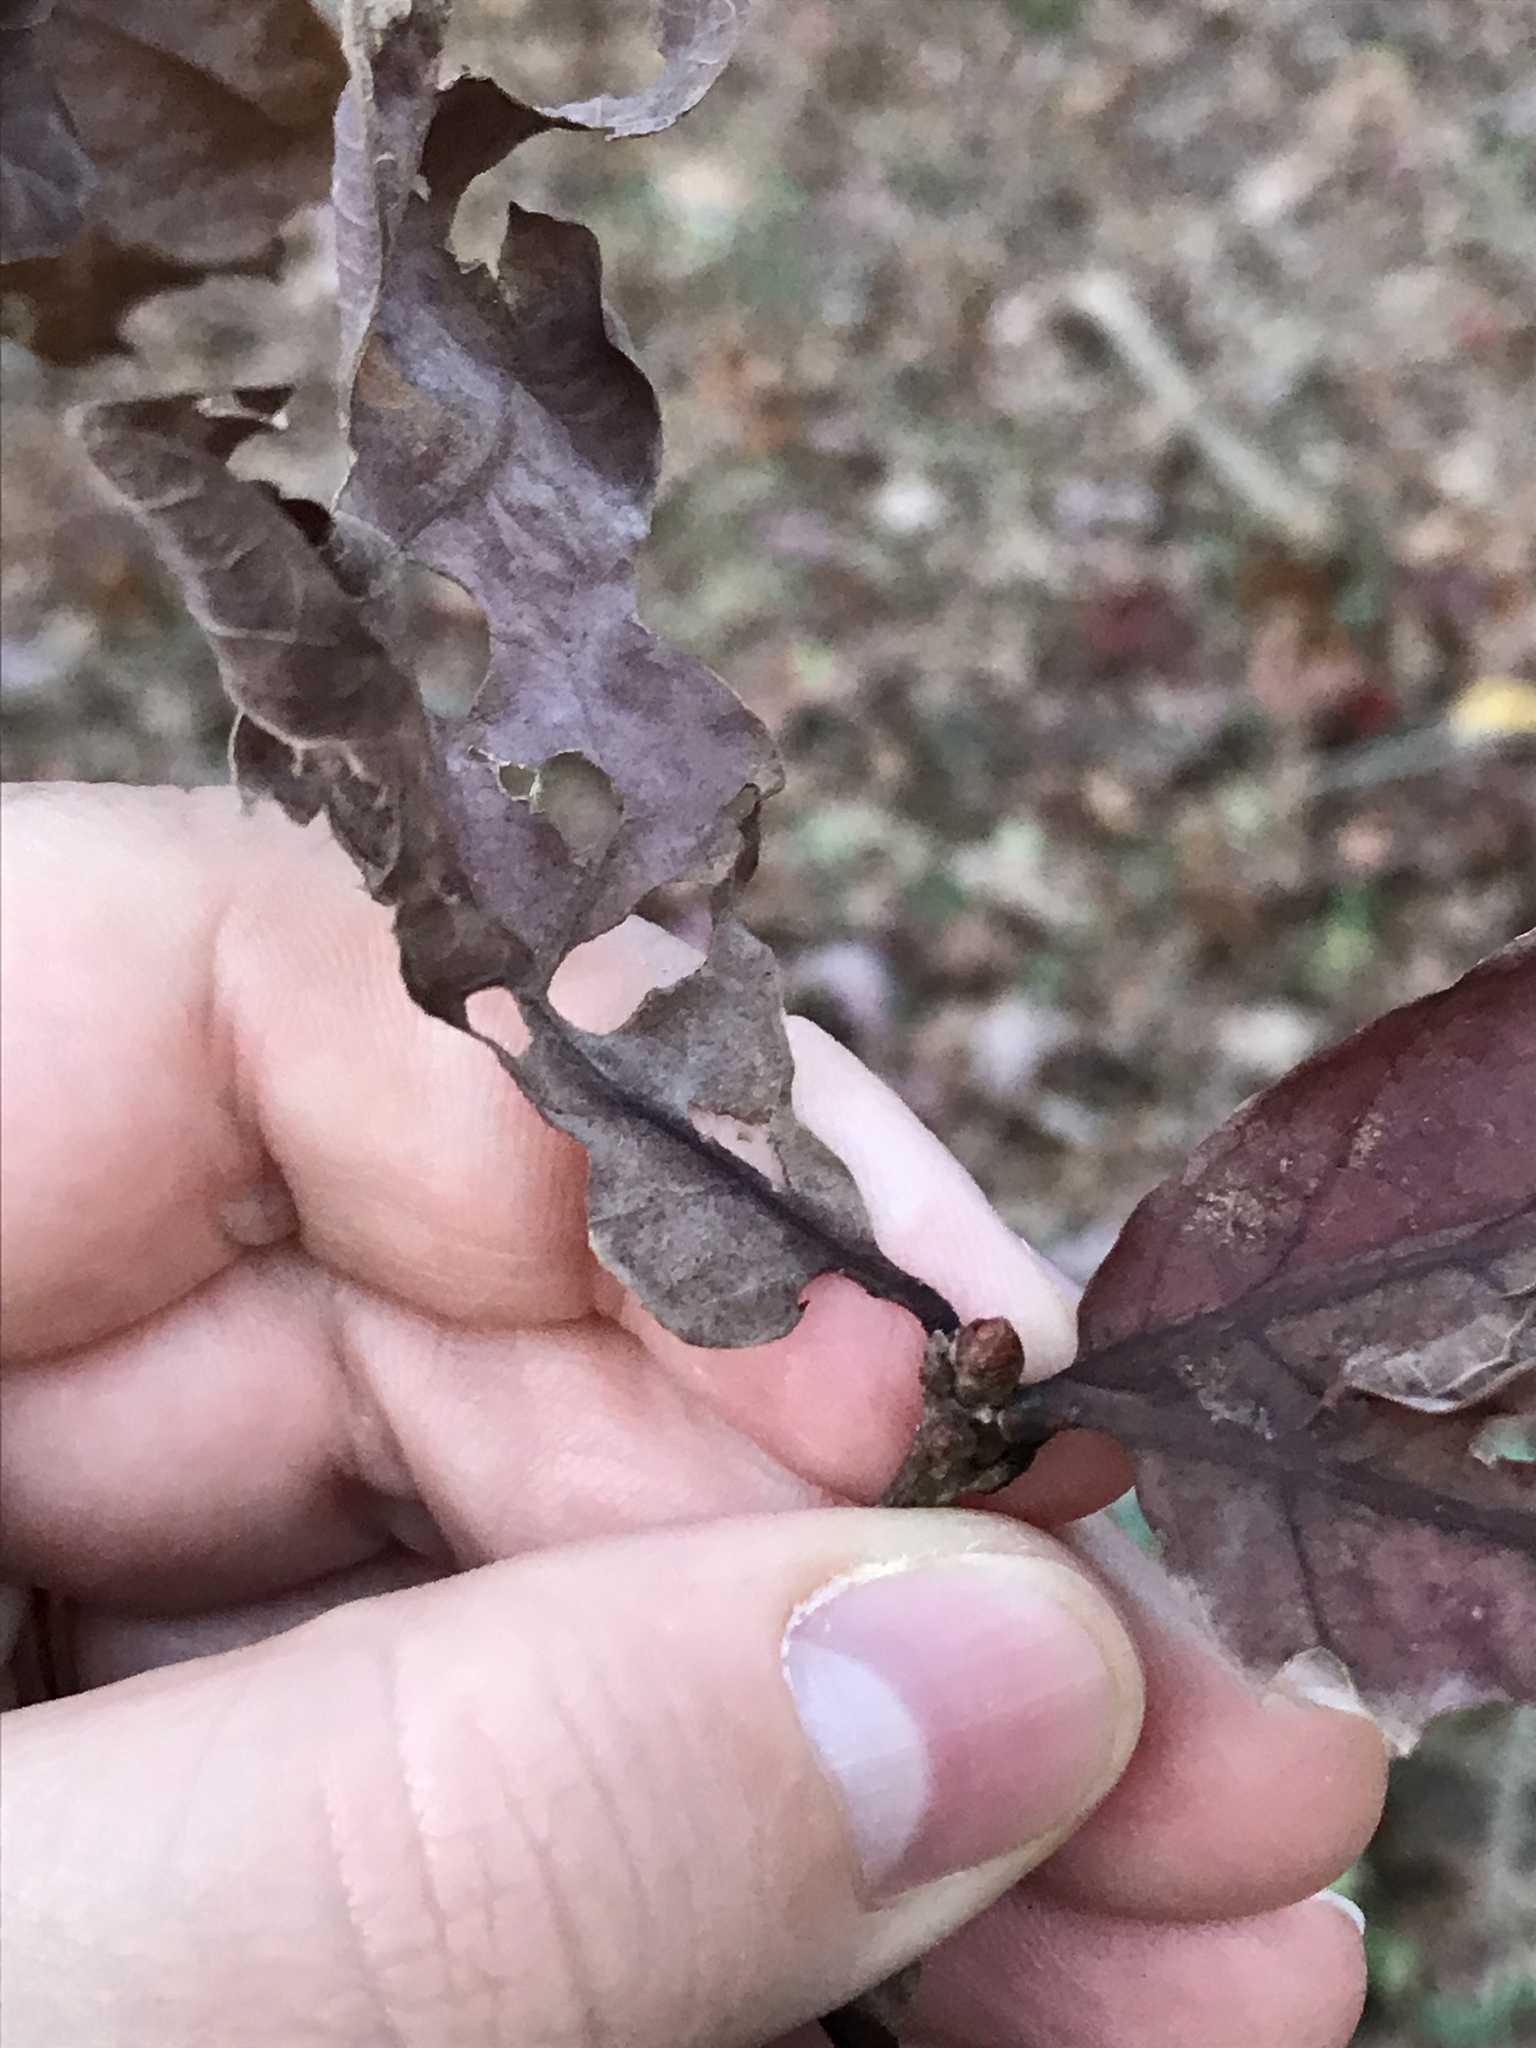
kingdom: Plantae
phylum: Tracheophyta
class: Magnoliopsida
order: Fagales
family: Fagaceae
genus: Quercus
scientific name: Quercus alba
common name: White oak
